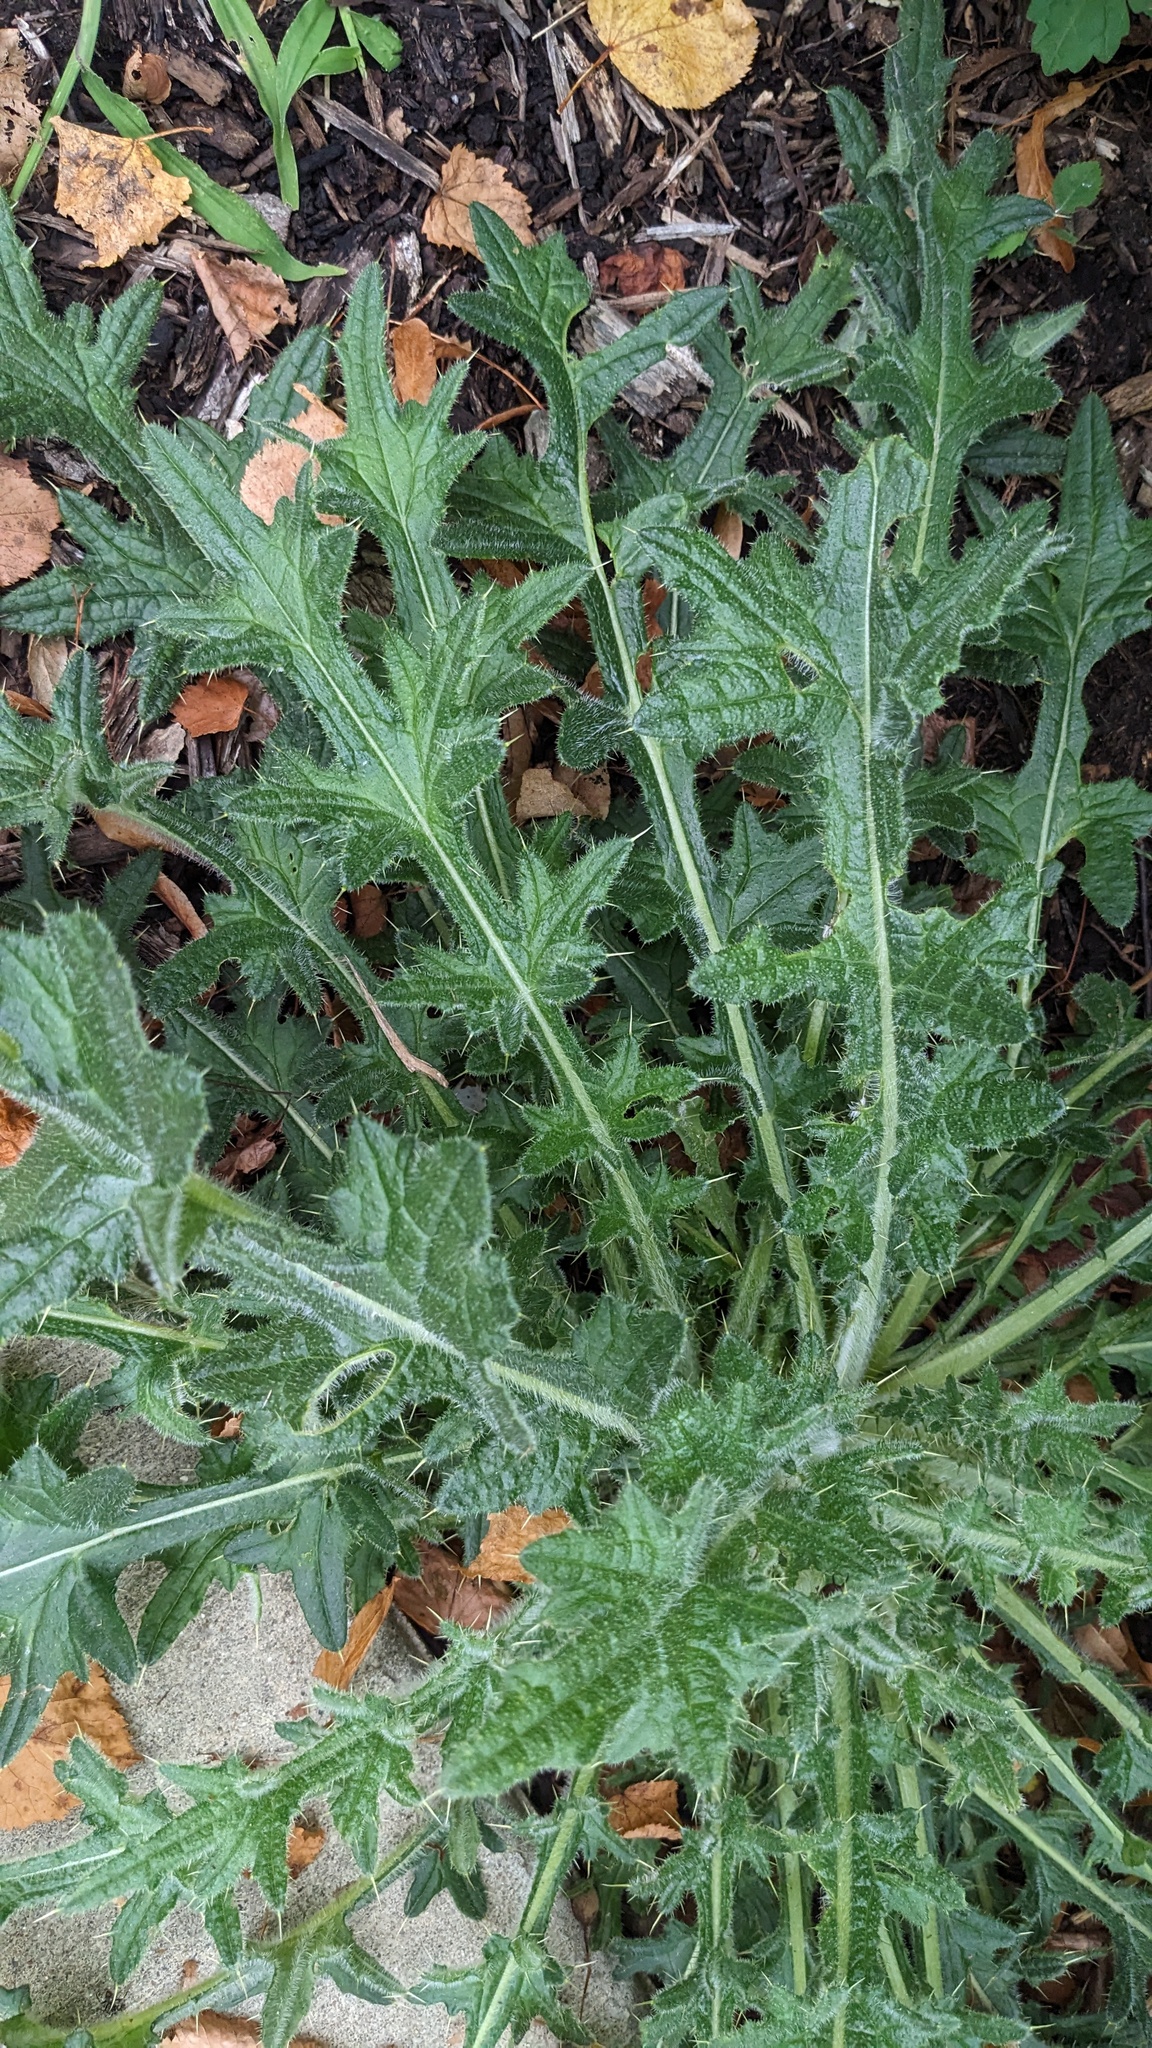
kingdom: Plantae
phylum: Tracheophyta
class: Magnoliopsida
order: Asterales
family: Asteraceae
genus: Cirsium
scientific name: Cirsium vulgare
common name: Bull thistle
